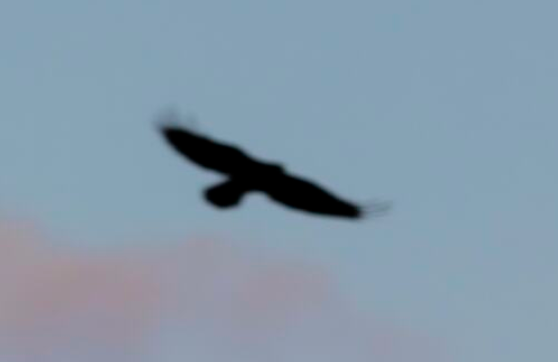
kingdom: Animalia
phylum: Chordata
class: Aves
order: Accipitriformes
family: Accipitridae
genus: Buteo
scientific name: Buteo buteo
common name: Common buzzard
